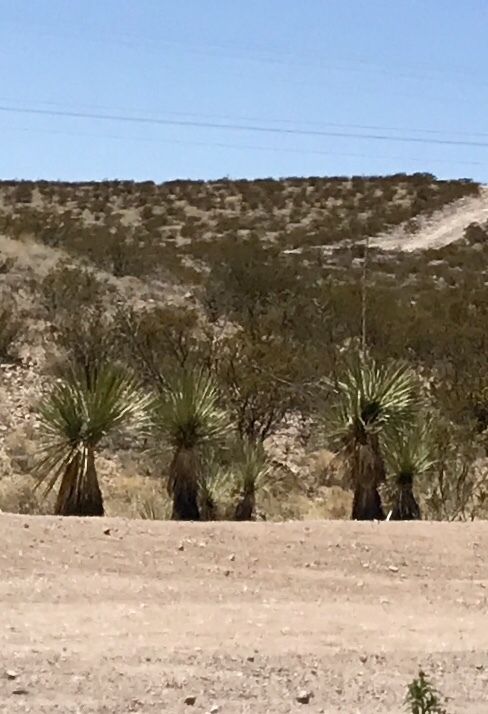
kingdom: Plantae
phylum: Tracheophyta
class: Liliopsida
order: Asparagales
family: Asparagaceae
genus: Yucca
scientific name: Yucca elata
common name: Palmella
